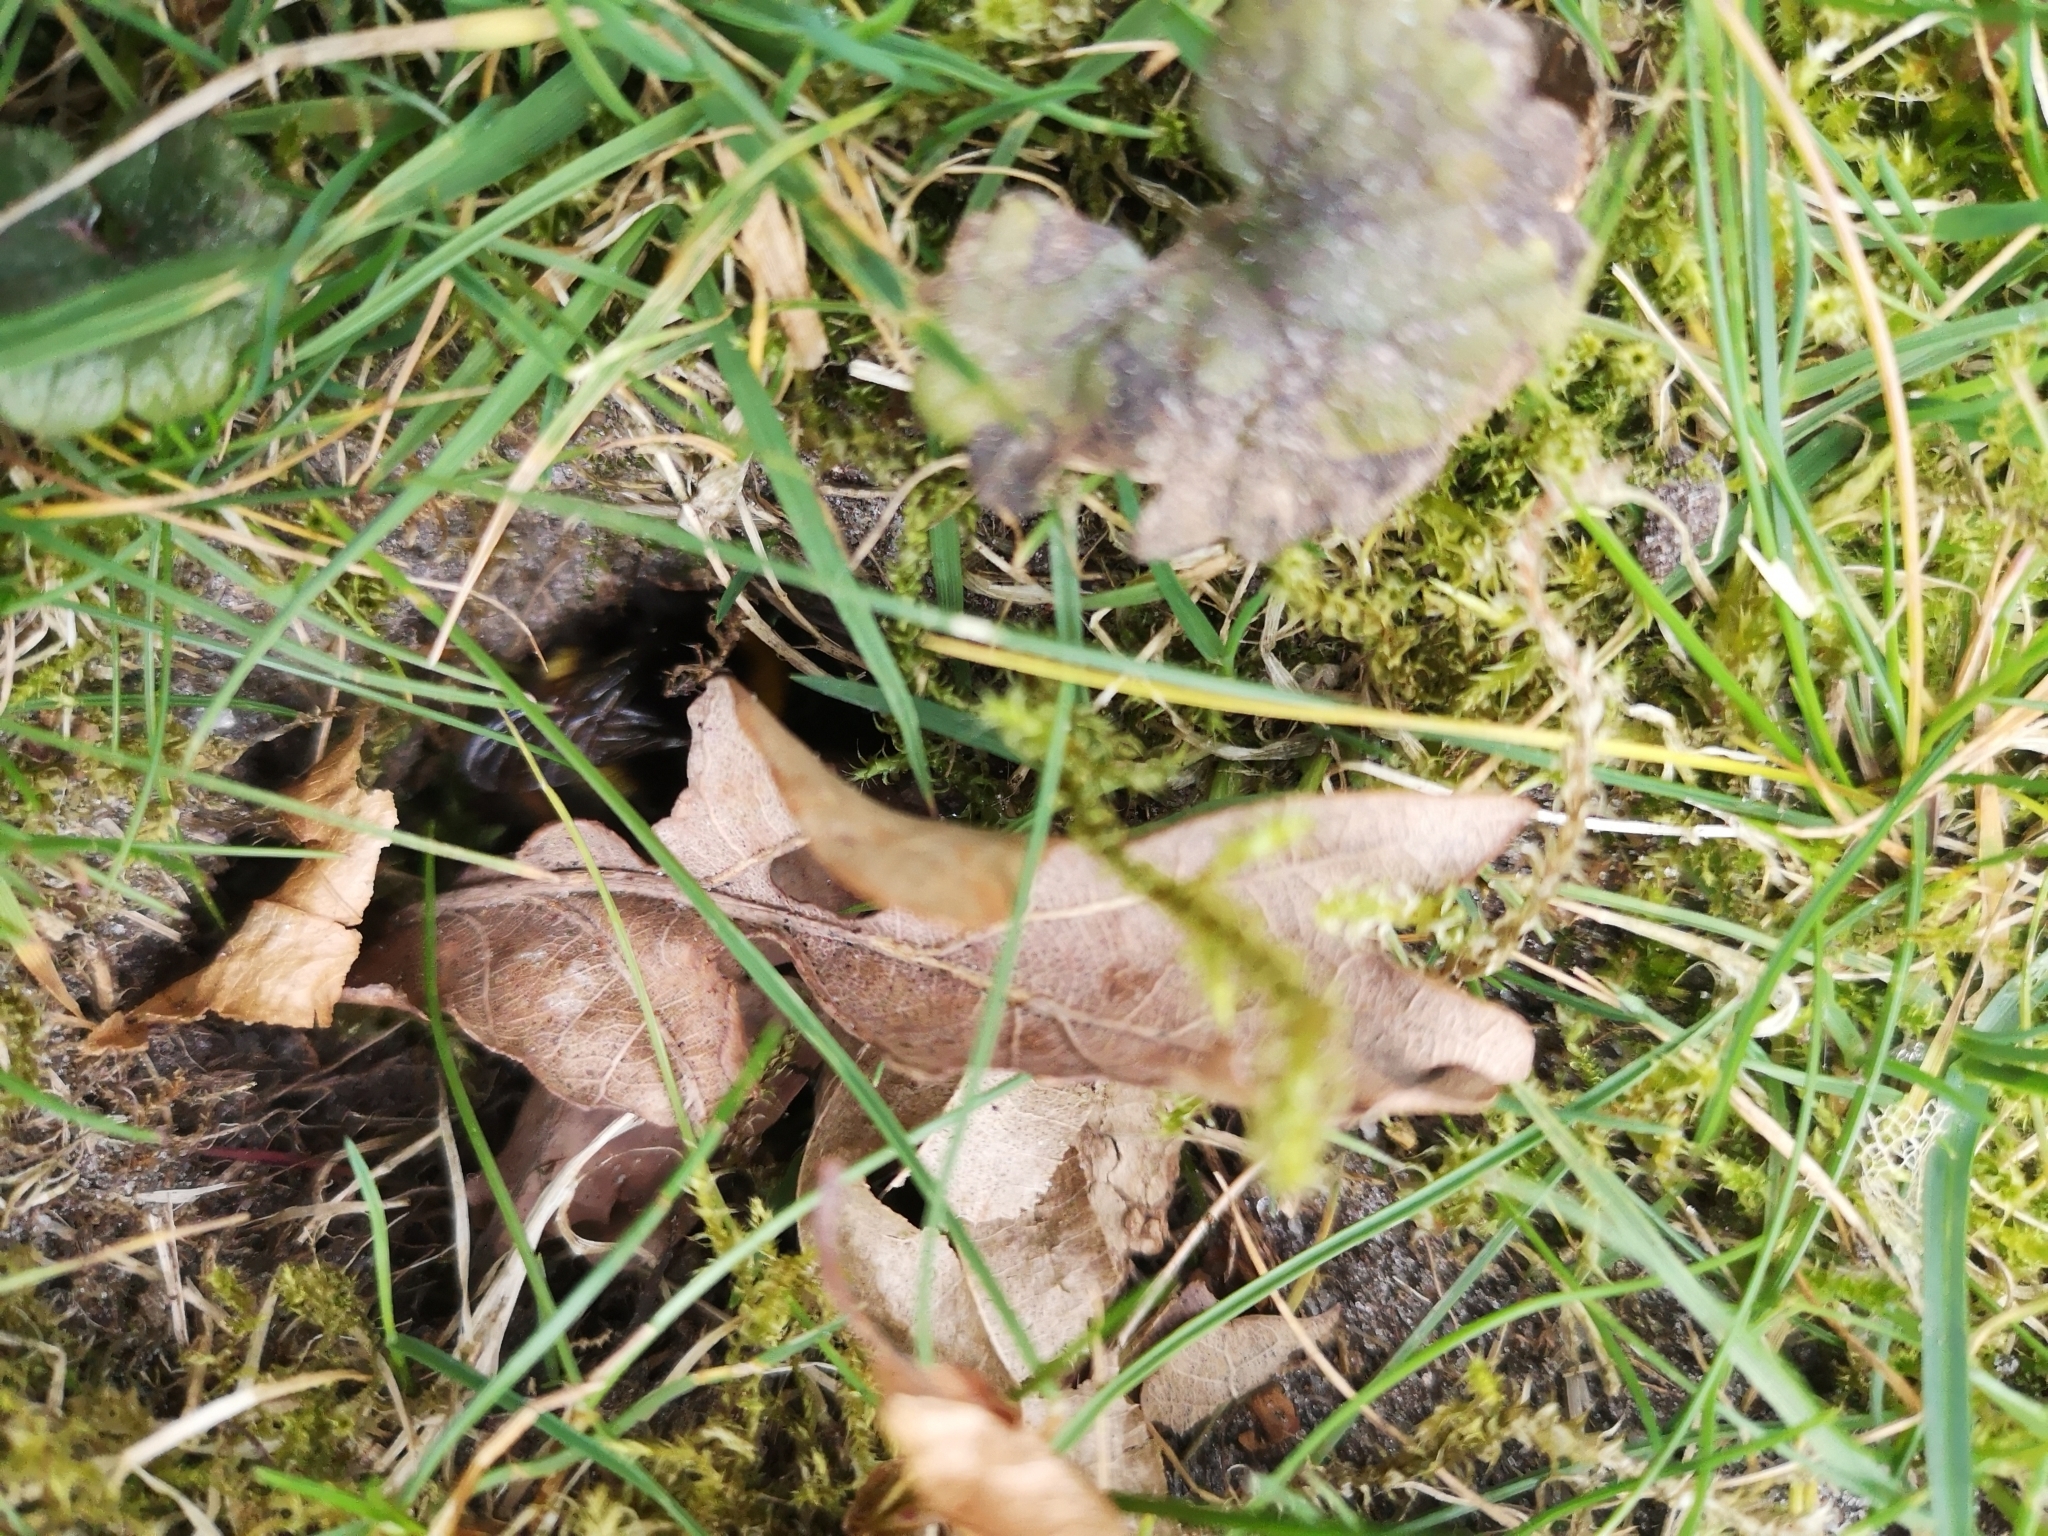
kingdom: Animalia
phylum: Arthropoda
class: Insecta
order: Hymenoptera
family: Apidae
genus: Bombus
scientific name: Bombus pratorum
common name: Early humble-bee
